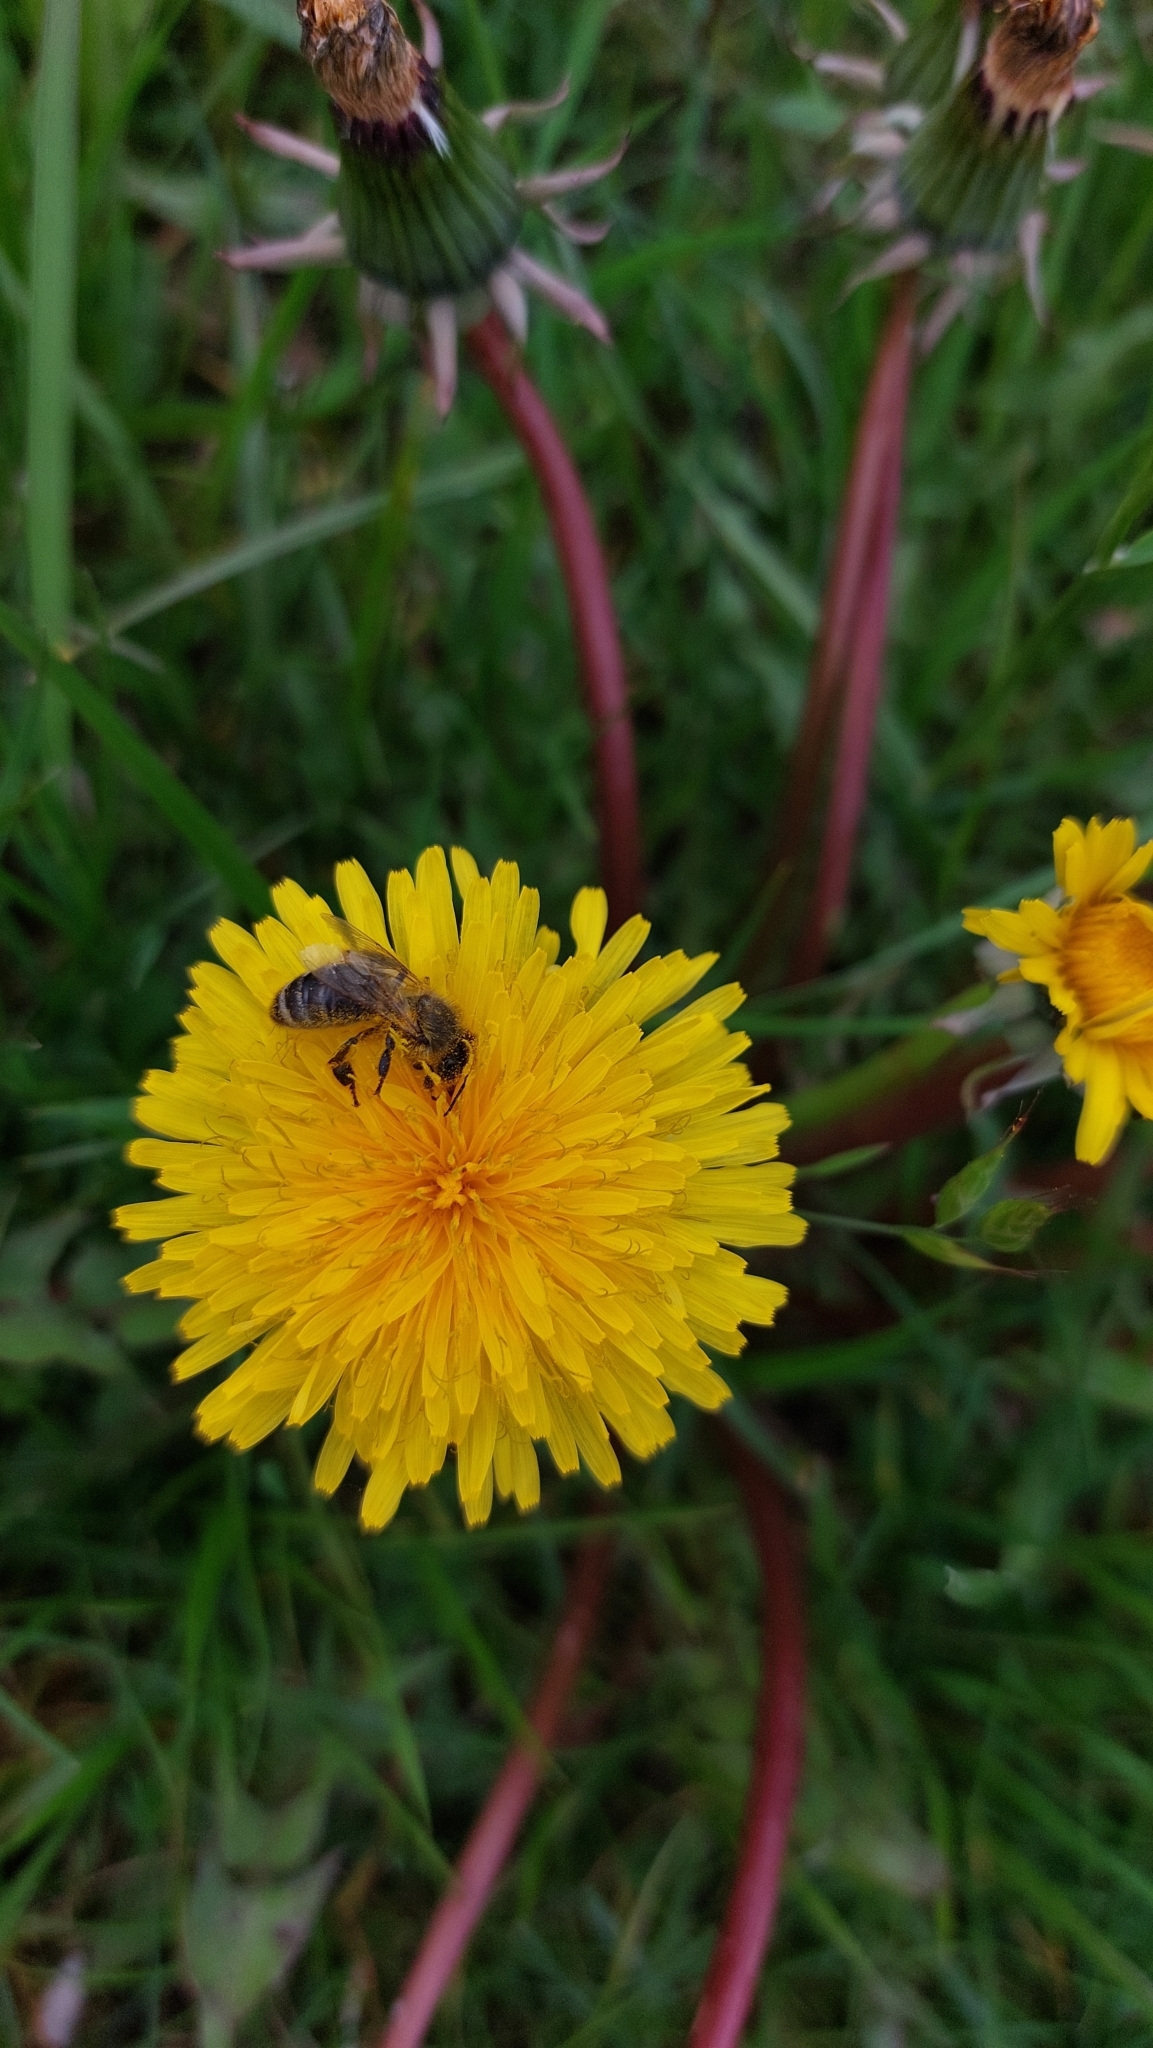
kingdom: Animalia
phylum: Arthropoda
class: Insecta
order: Hymenoptera
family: Apidae
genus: Apis
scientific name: Apis mellifera
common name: Honey bee
